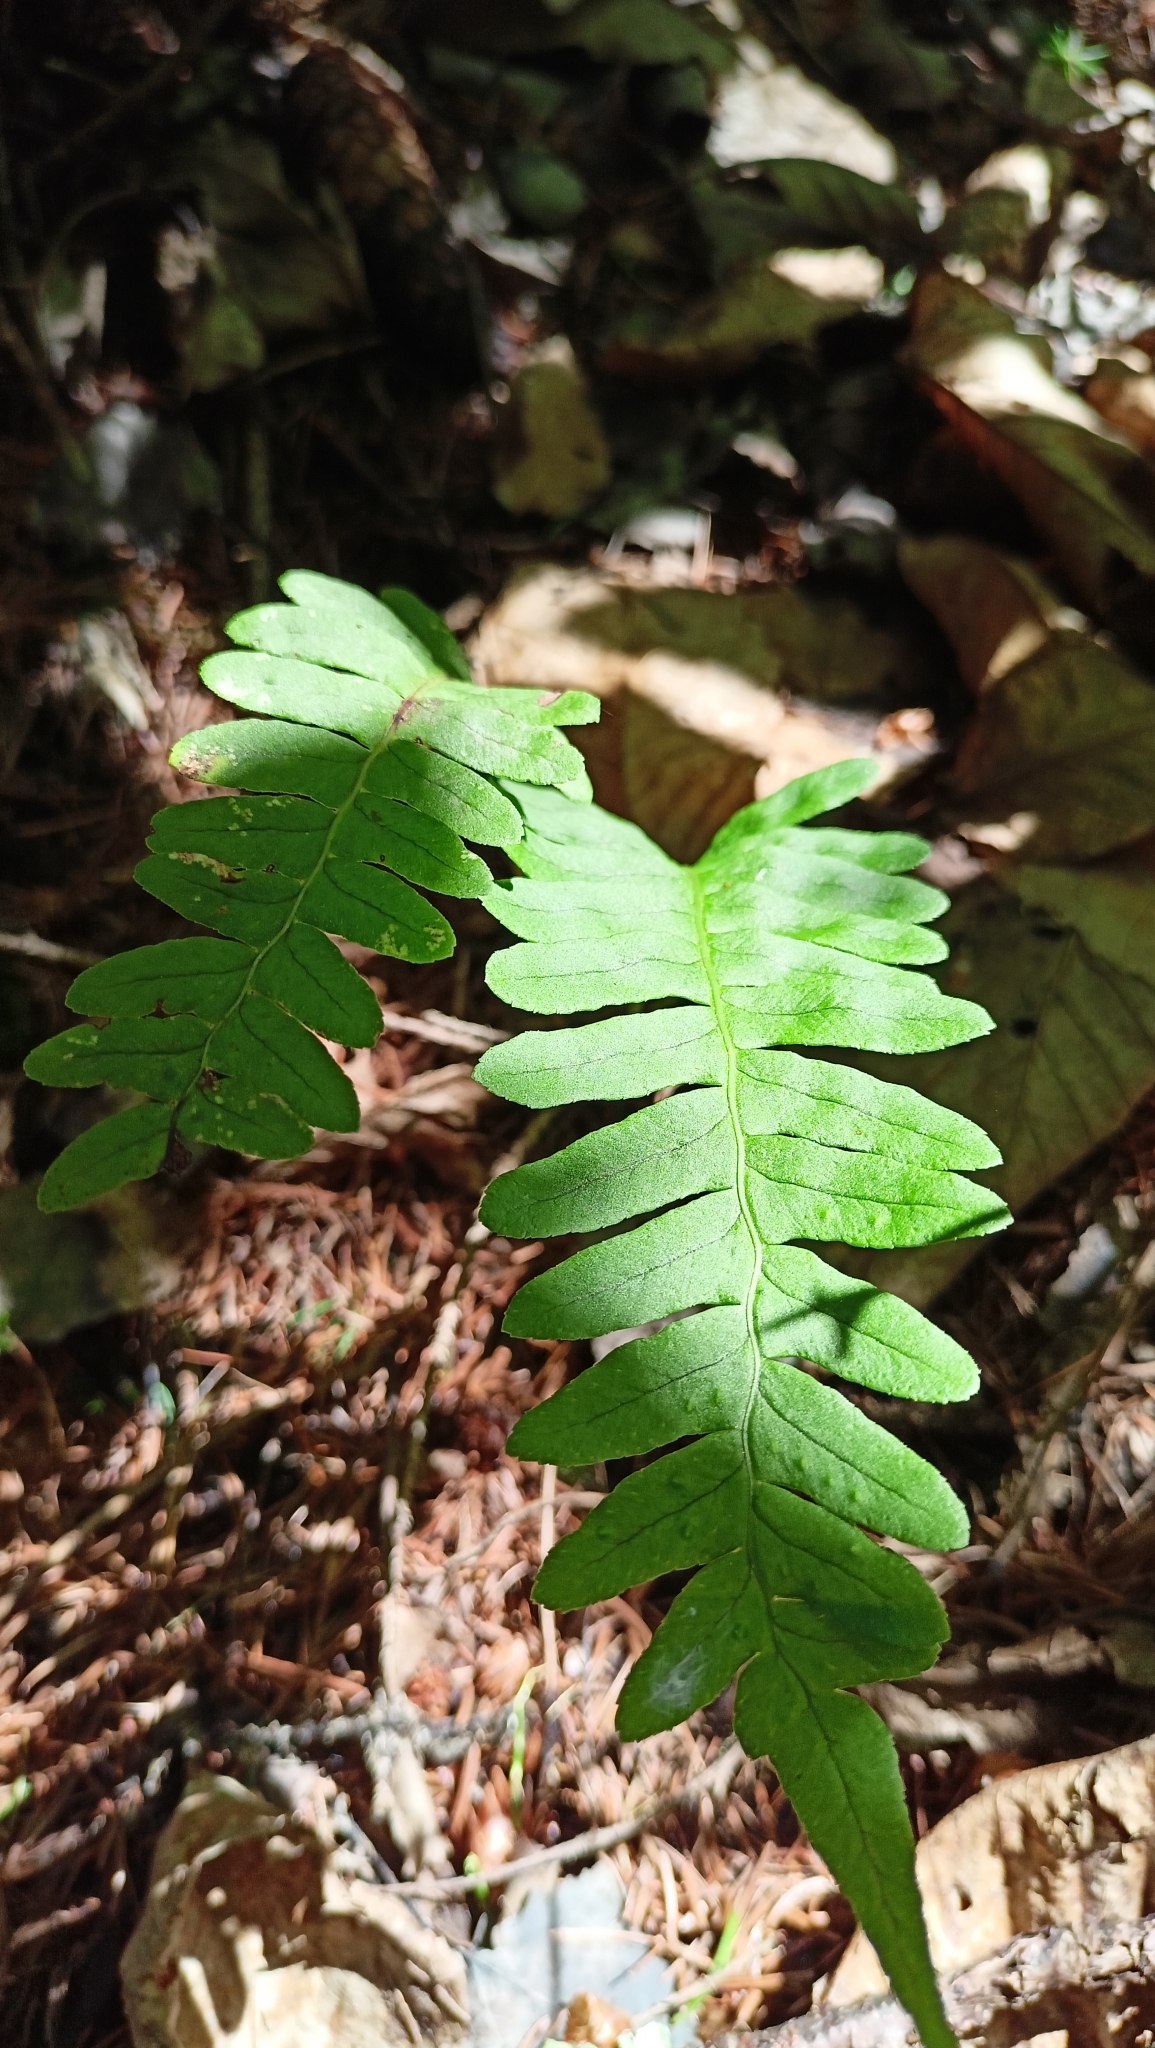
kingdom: Plantae
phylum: Tracheophyta
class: Polypodiopsida
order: Polypodiales
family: Polypodiaceae
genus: Polypodium
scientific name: Polypodium vulgare
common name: Common polypody
